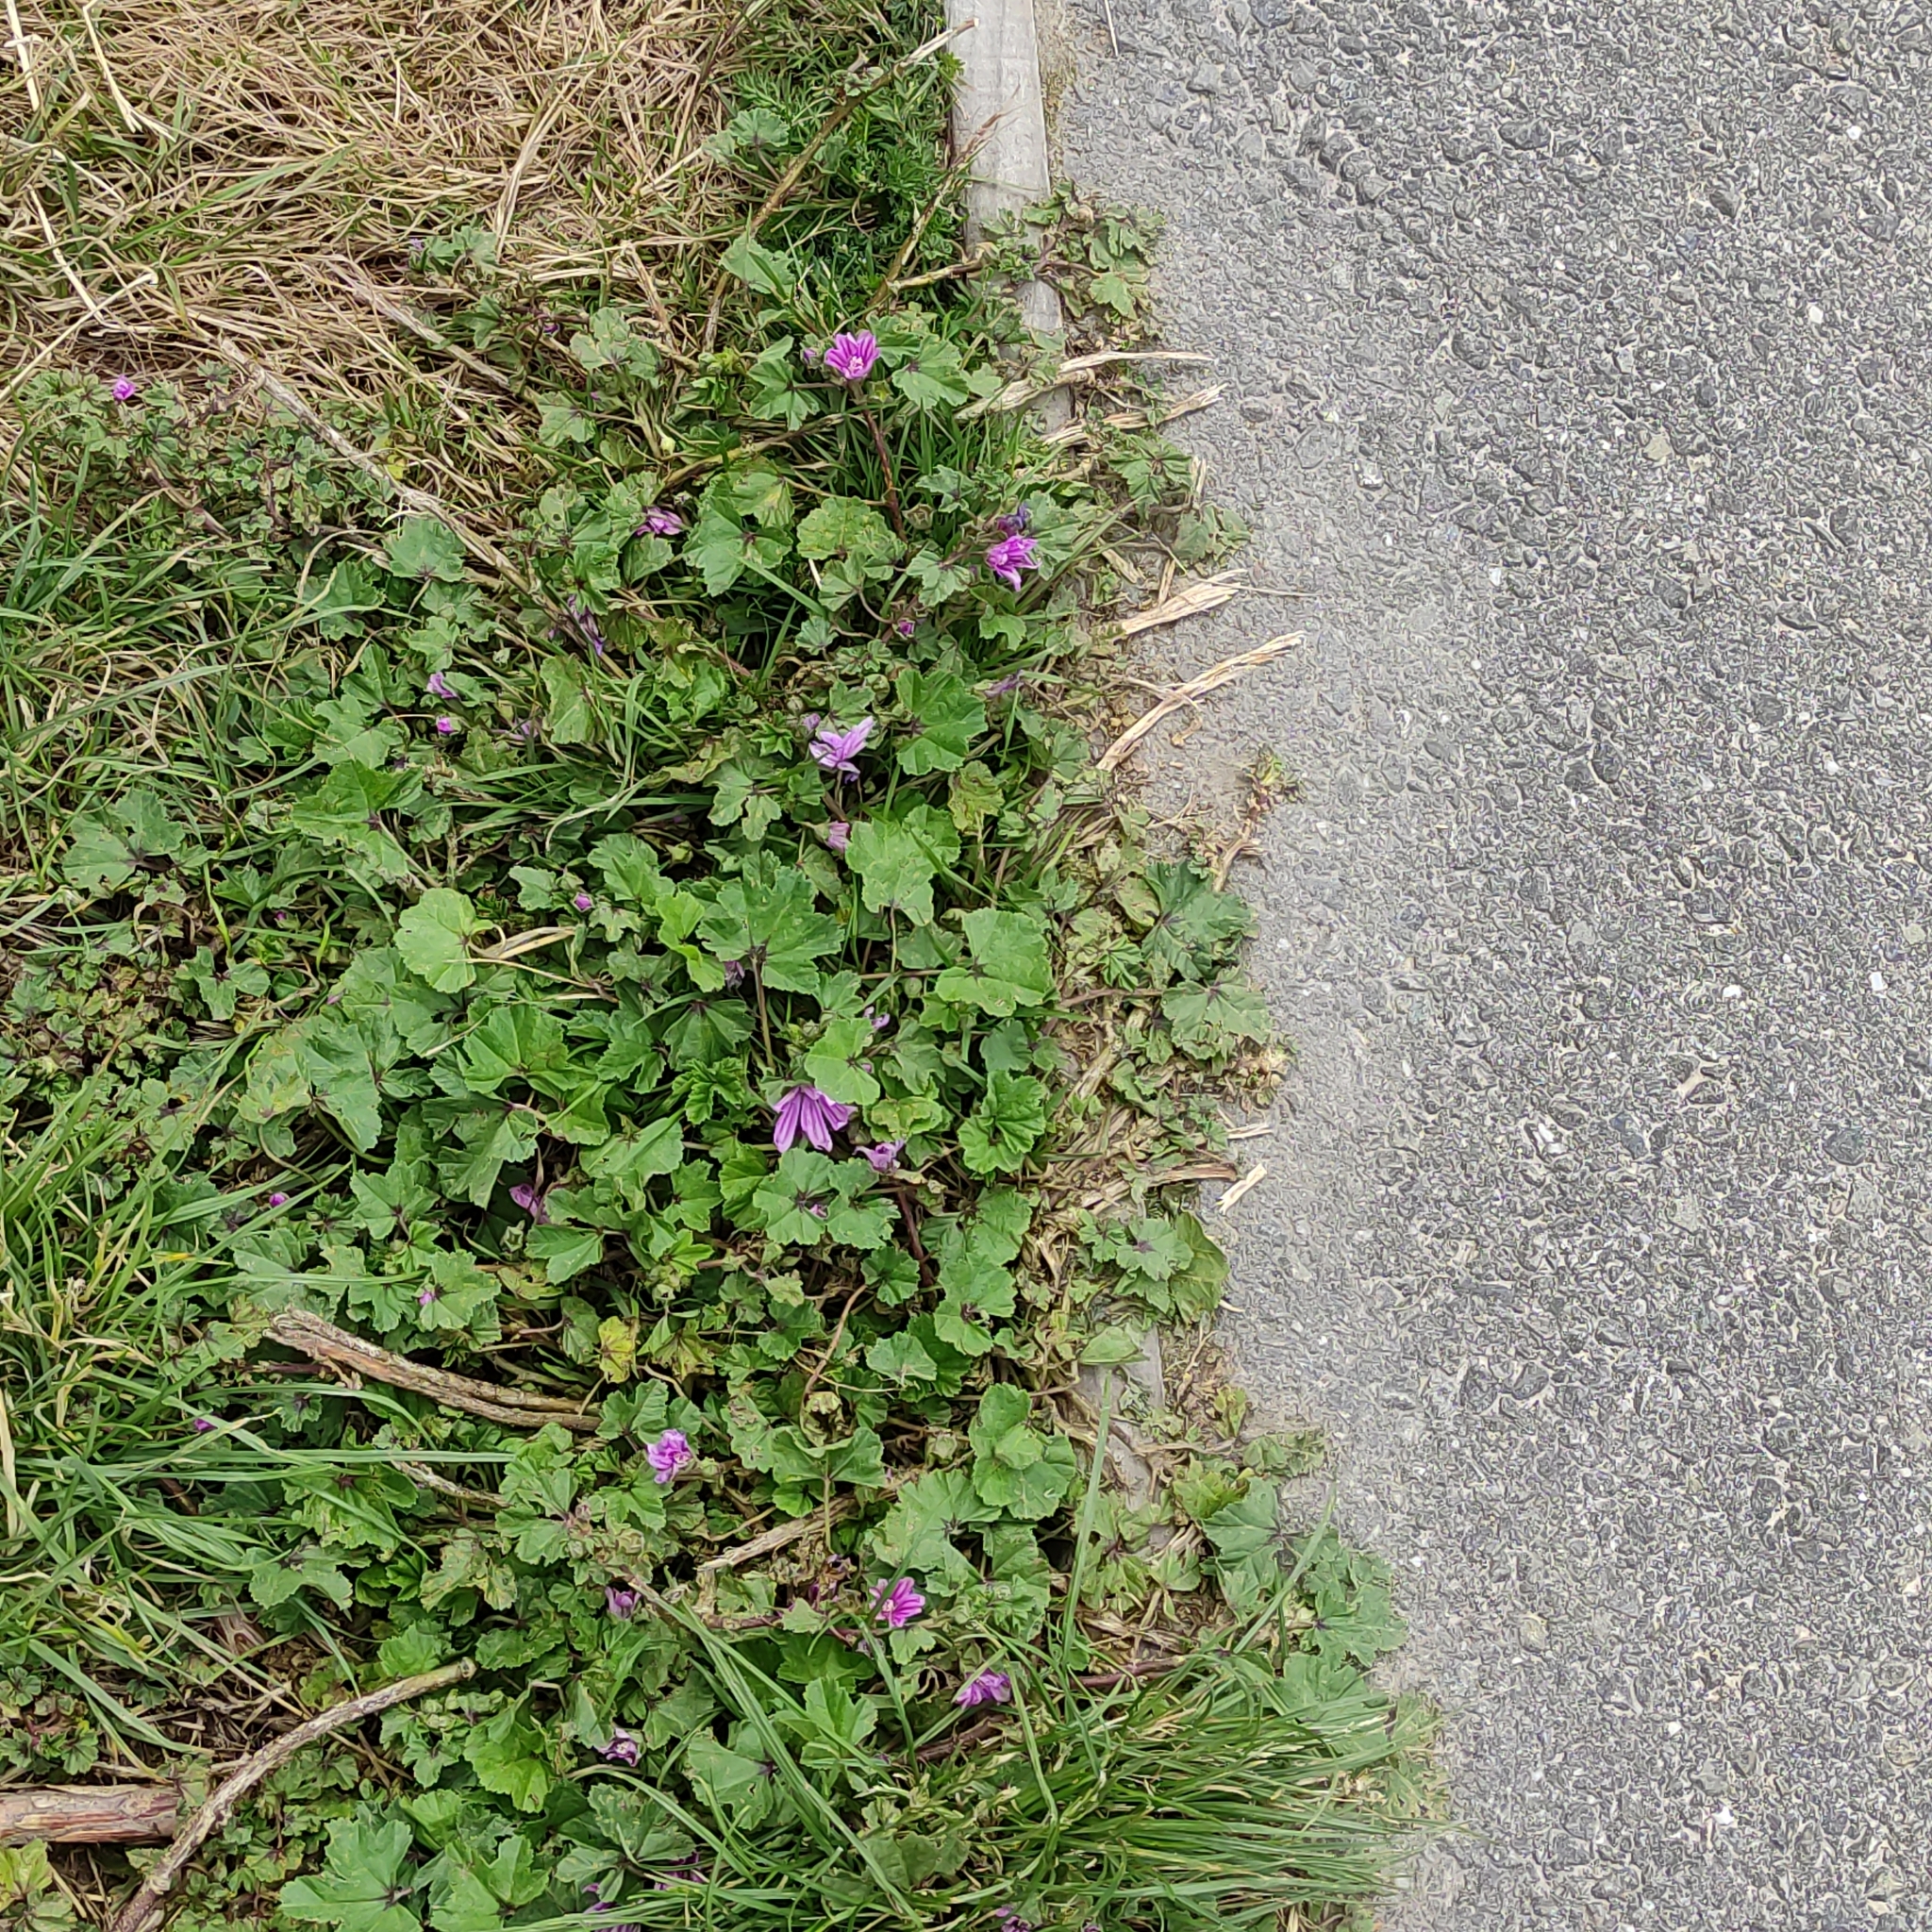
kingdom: Plantae
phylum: Tracheophyta
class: Magnoliopsida
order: Malvales
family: Malvaceae
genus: Malva
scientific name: Malva sylvestris
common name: Common mallow
